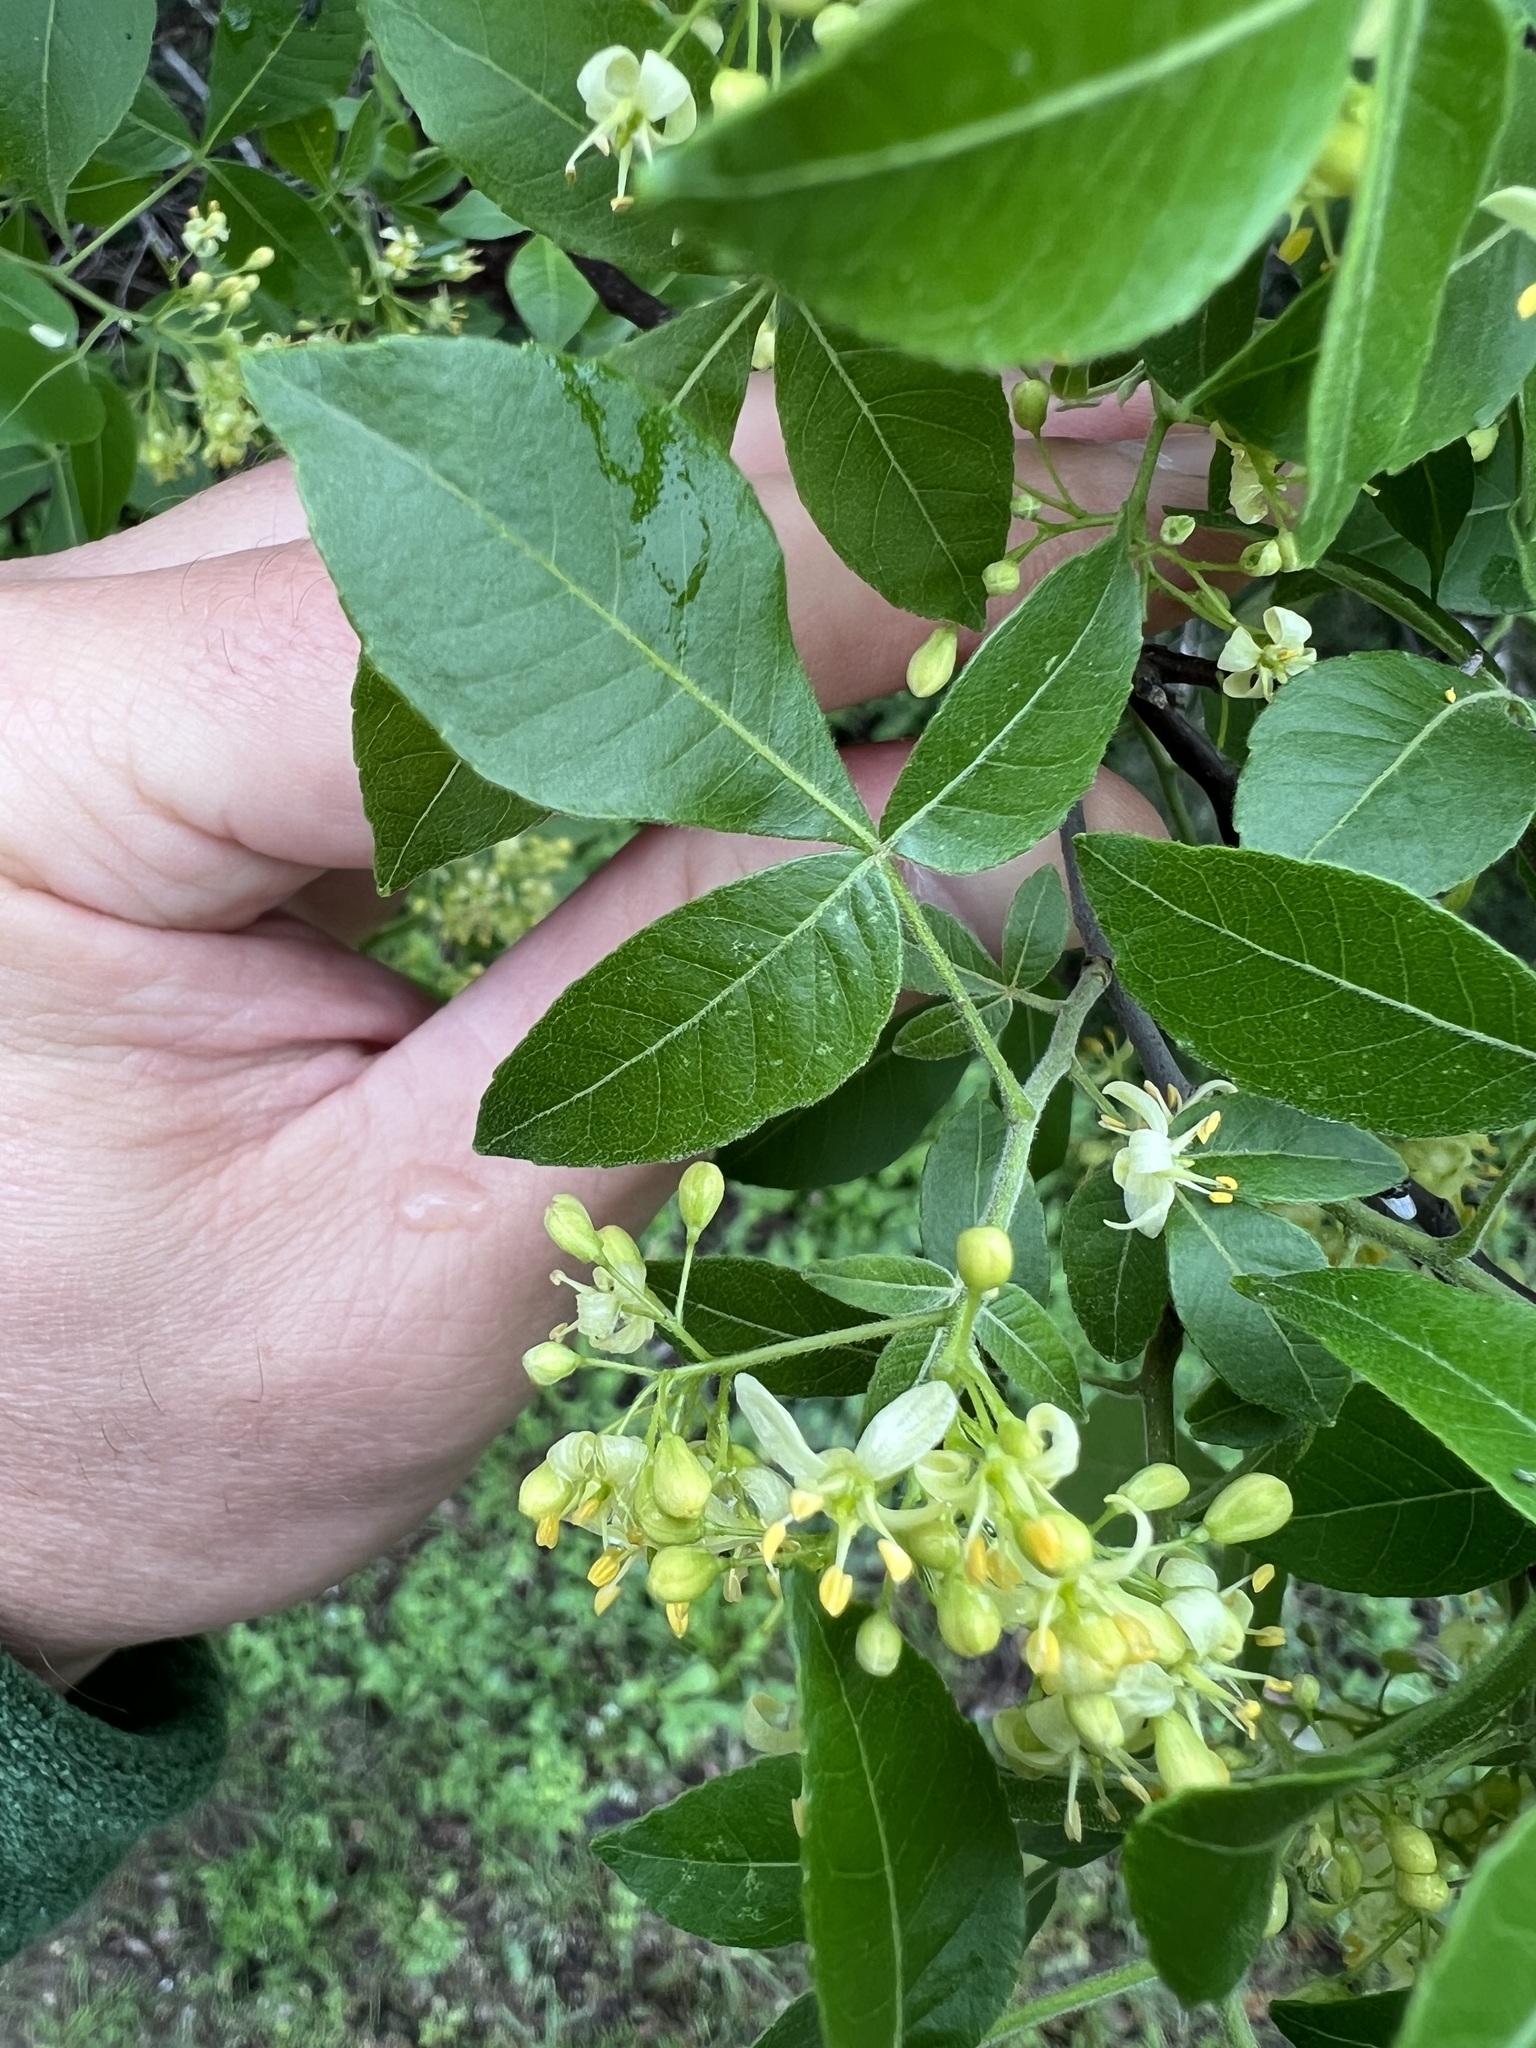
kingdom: Plantae
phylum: Tracheophyta
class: Magnoliopsida
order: Sapindales
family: Rutaceae
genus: Ptelea
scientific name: Ptelea trifoliata
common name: Common hop-tree
